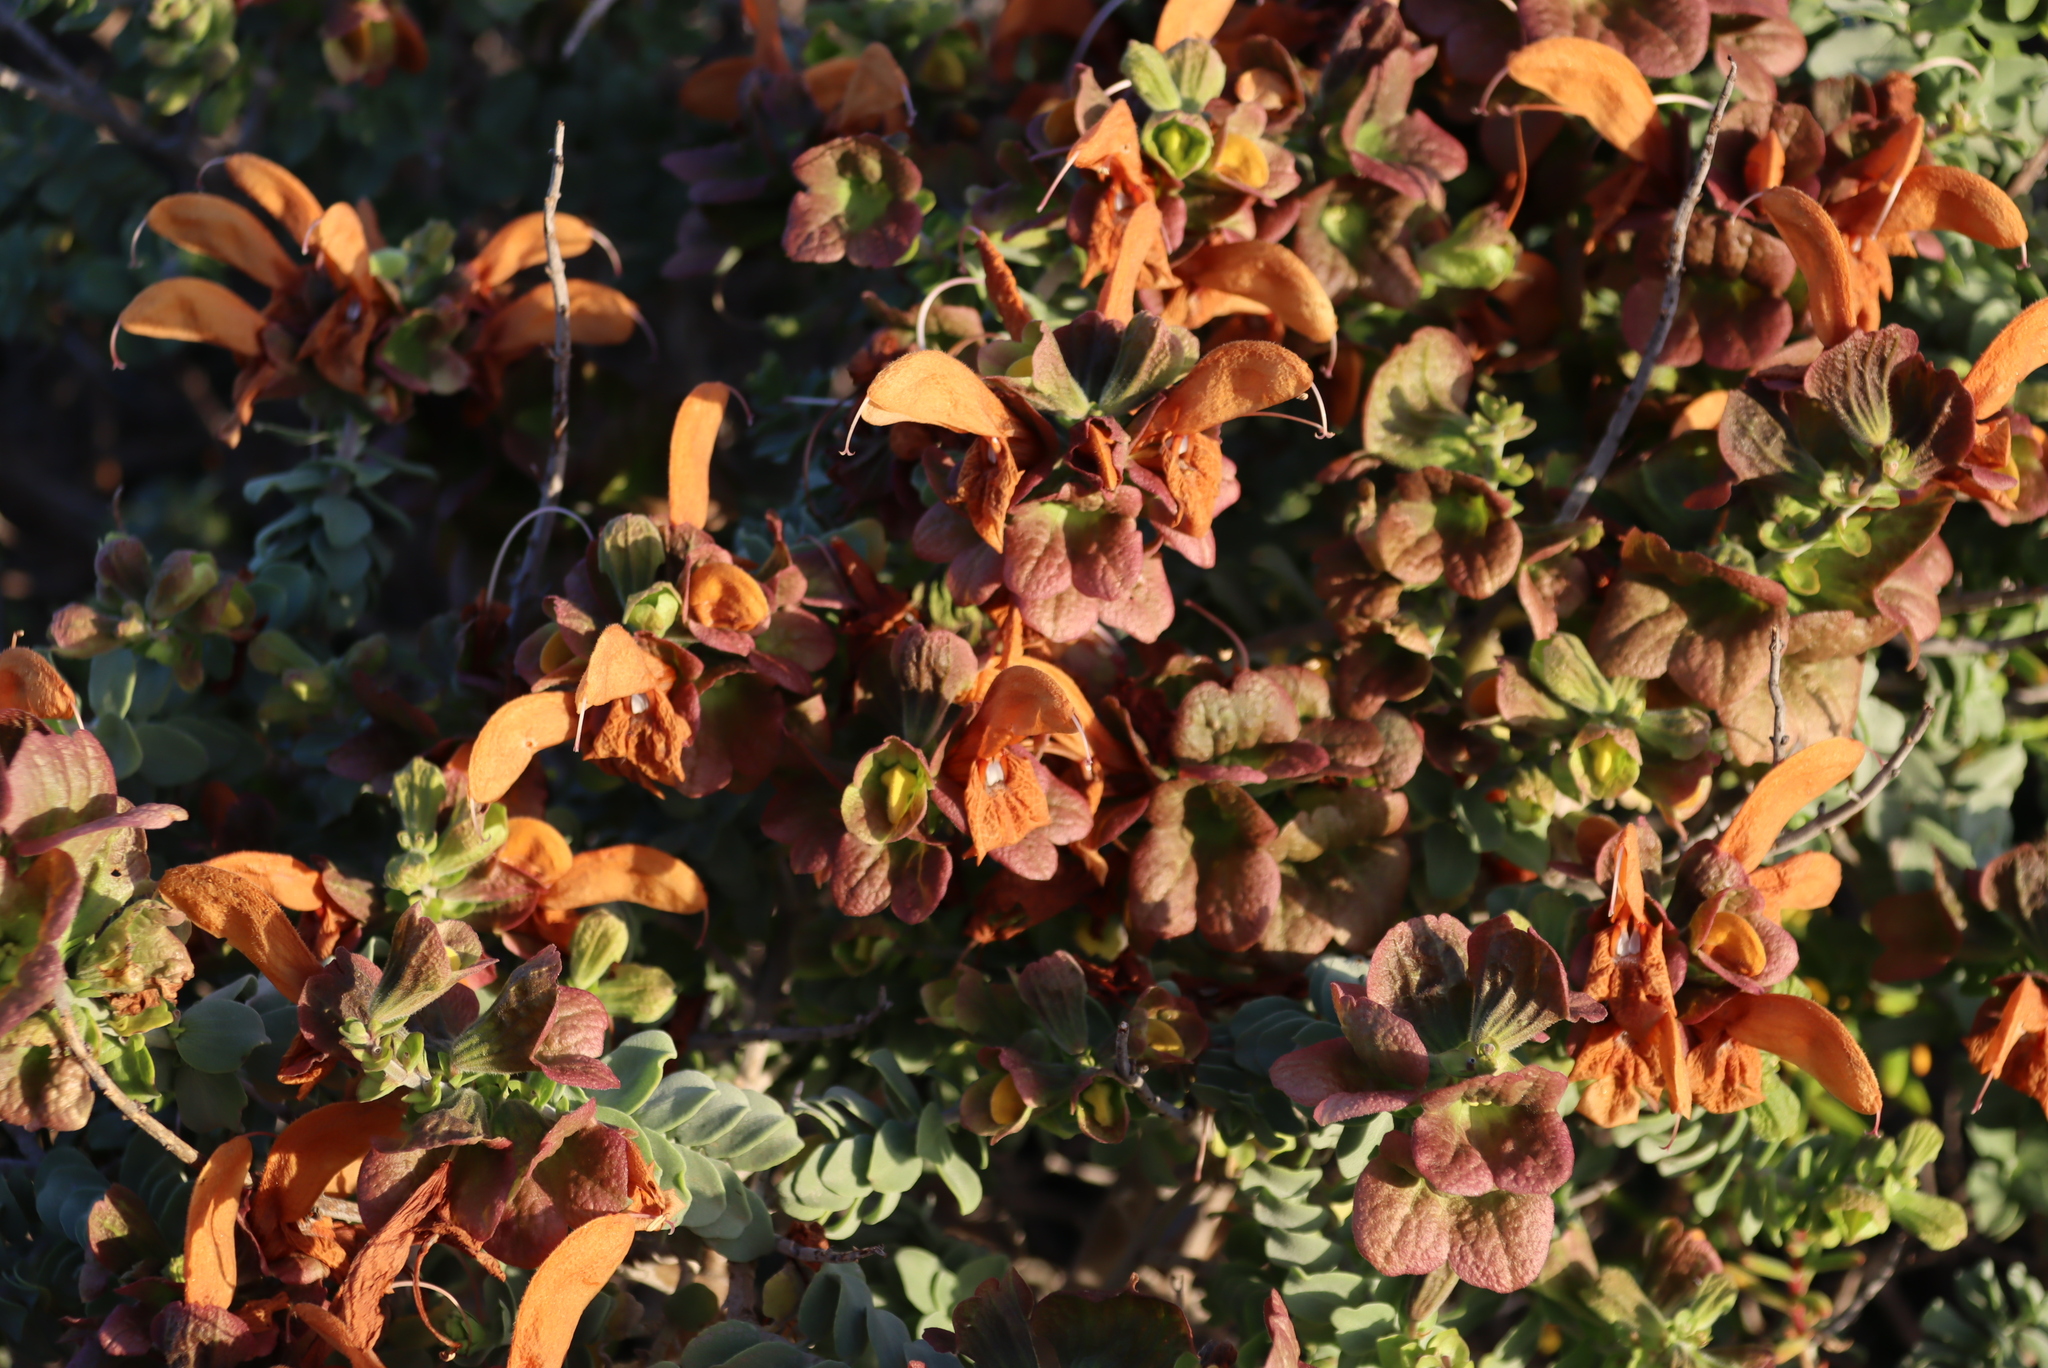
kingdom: Plantae
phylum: Tracheophyta
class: Magnoliopsida
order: Lamiales
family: Lamiaceae
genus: Salvia
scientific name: Salvia aurea
